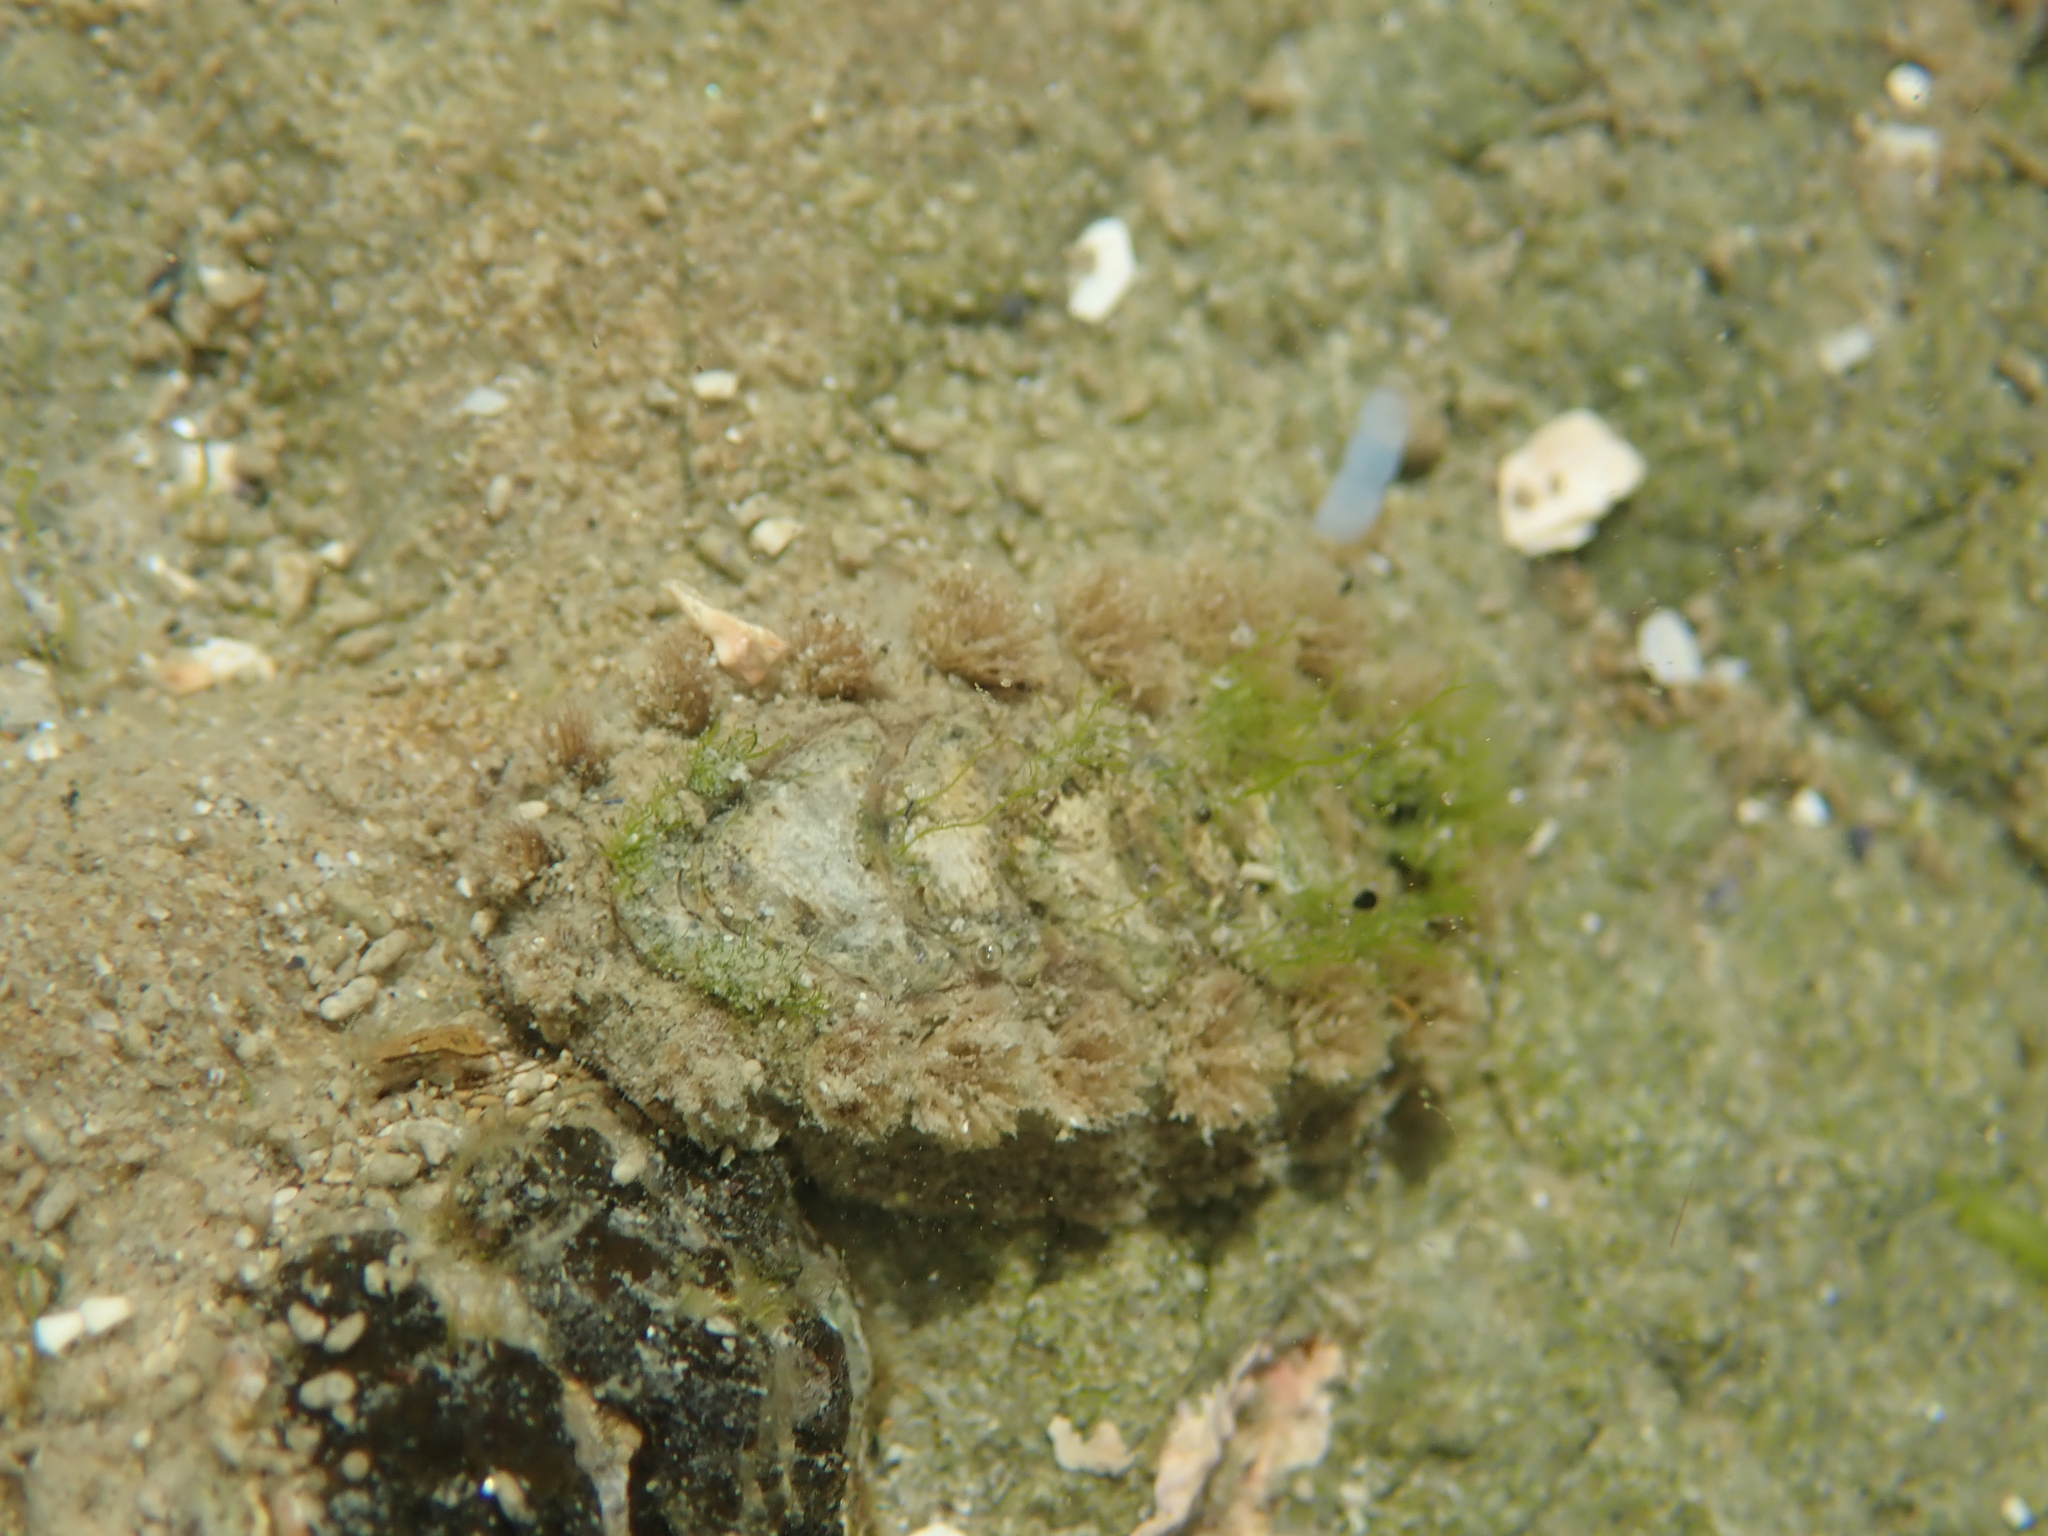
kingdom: Animalia
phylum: Mollusca
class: Polyplacophora
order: Chitonida
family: Acanthochitonidae
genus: Acanthochitona
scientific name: Acanthochitona zelandica
